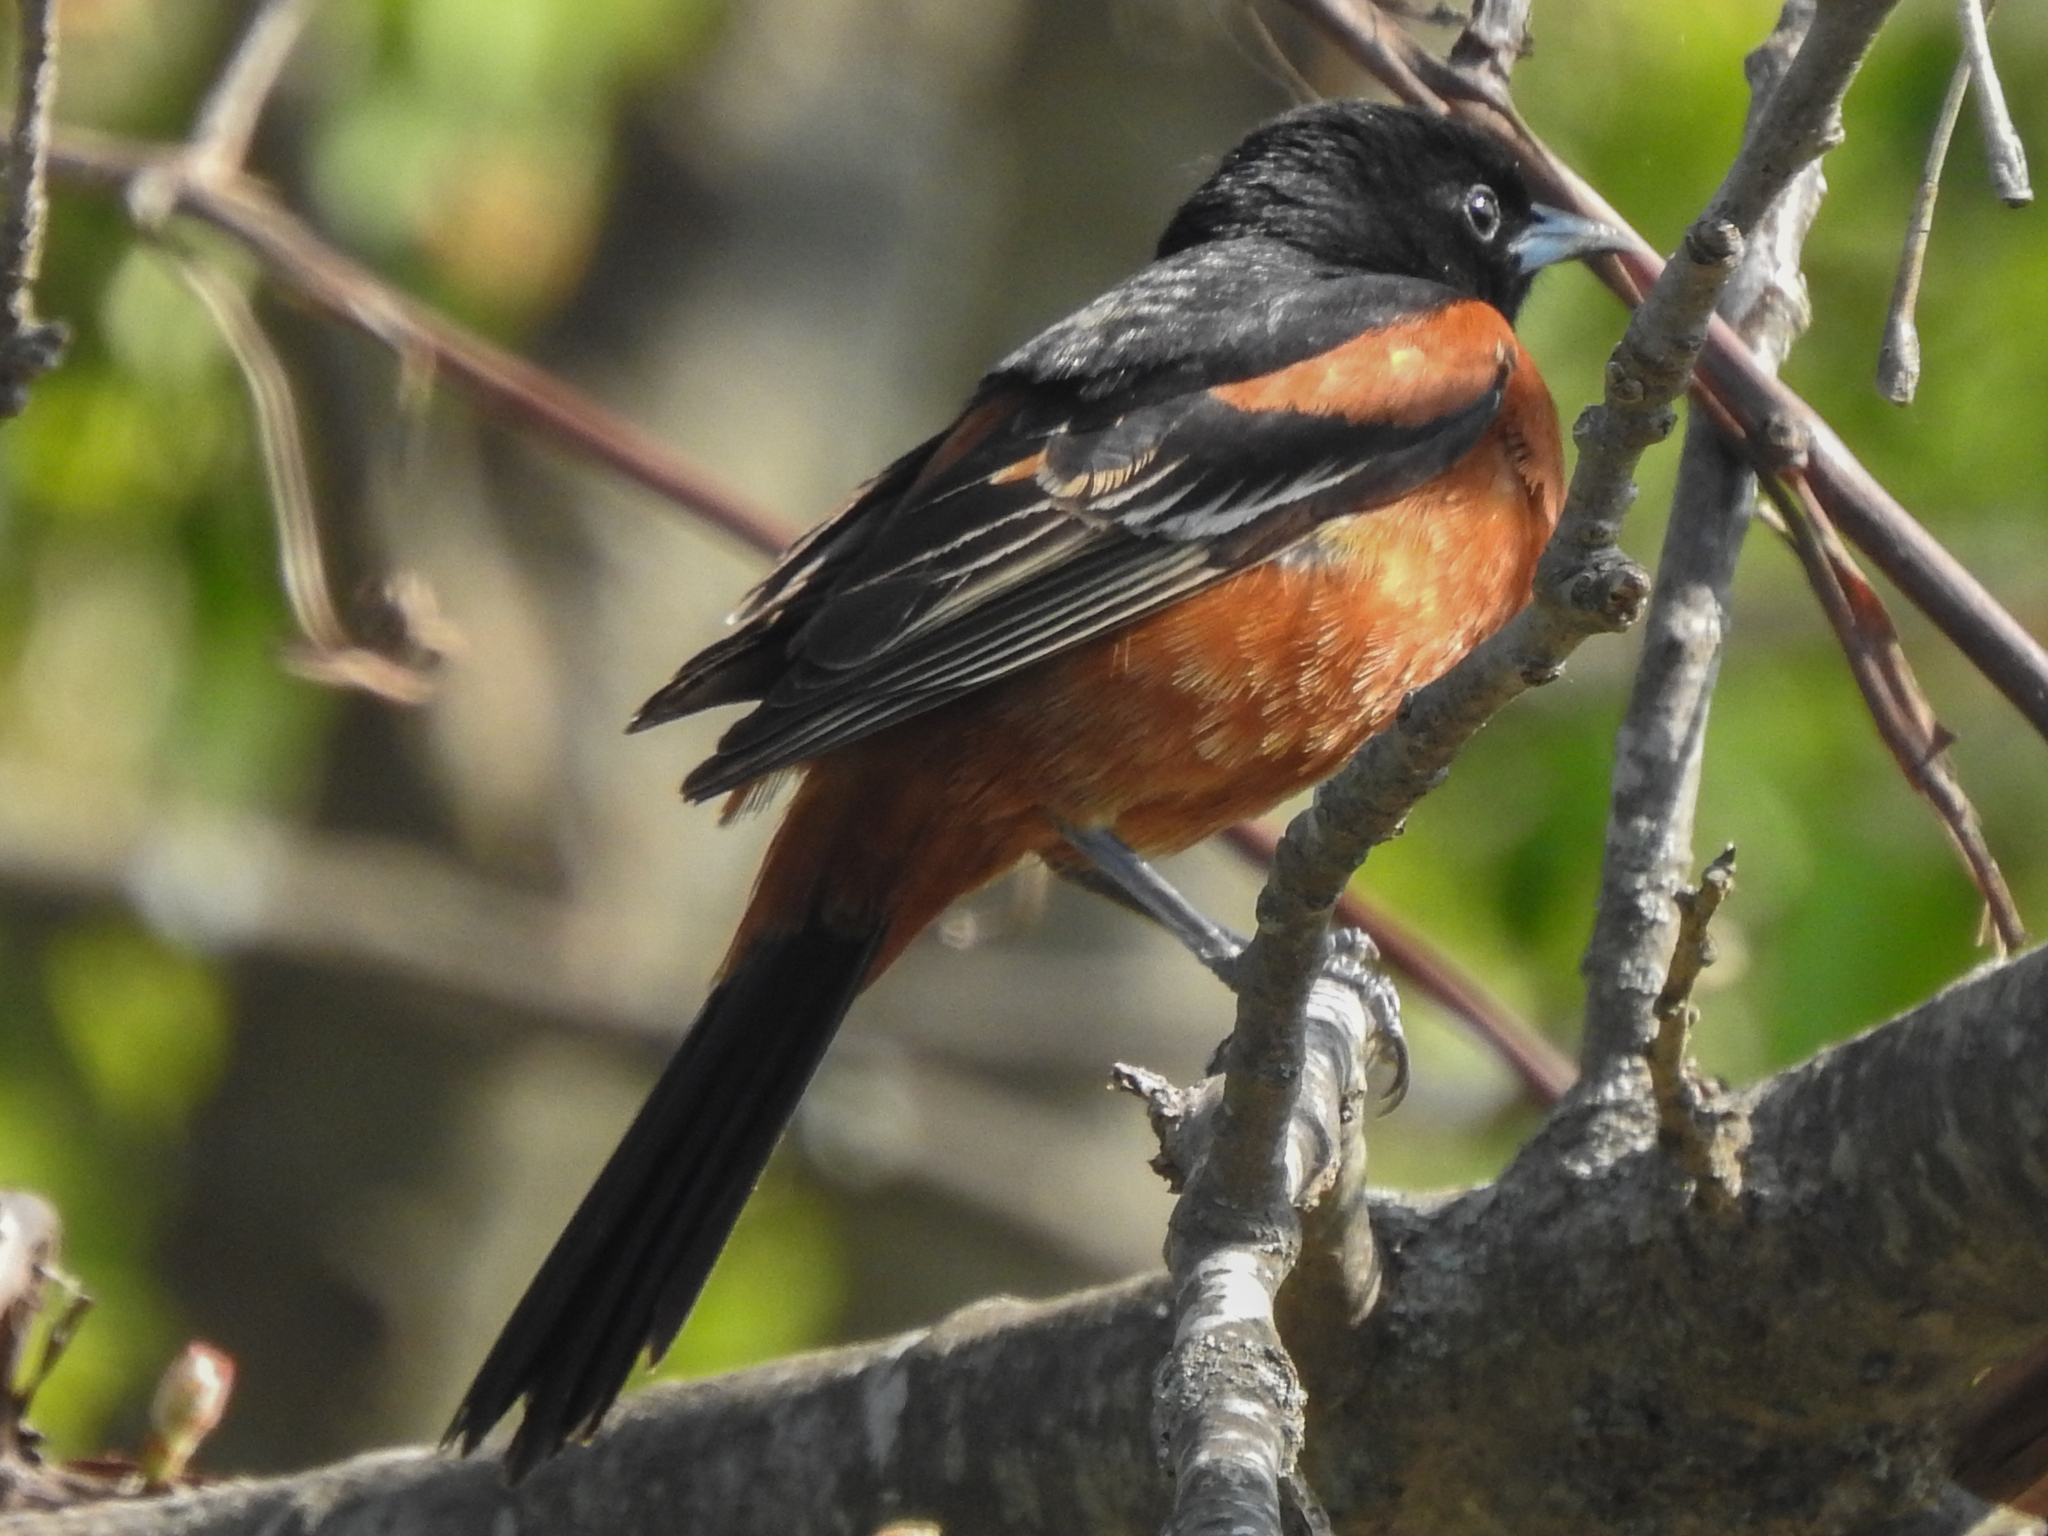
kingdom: Animalia
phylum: Chordata
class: Aves
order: Passeriformes
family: Icteridae
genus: Icterus
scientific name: Icterus spurius
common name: Orchard oriole
